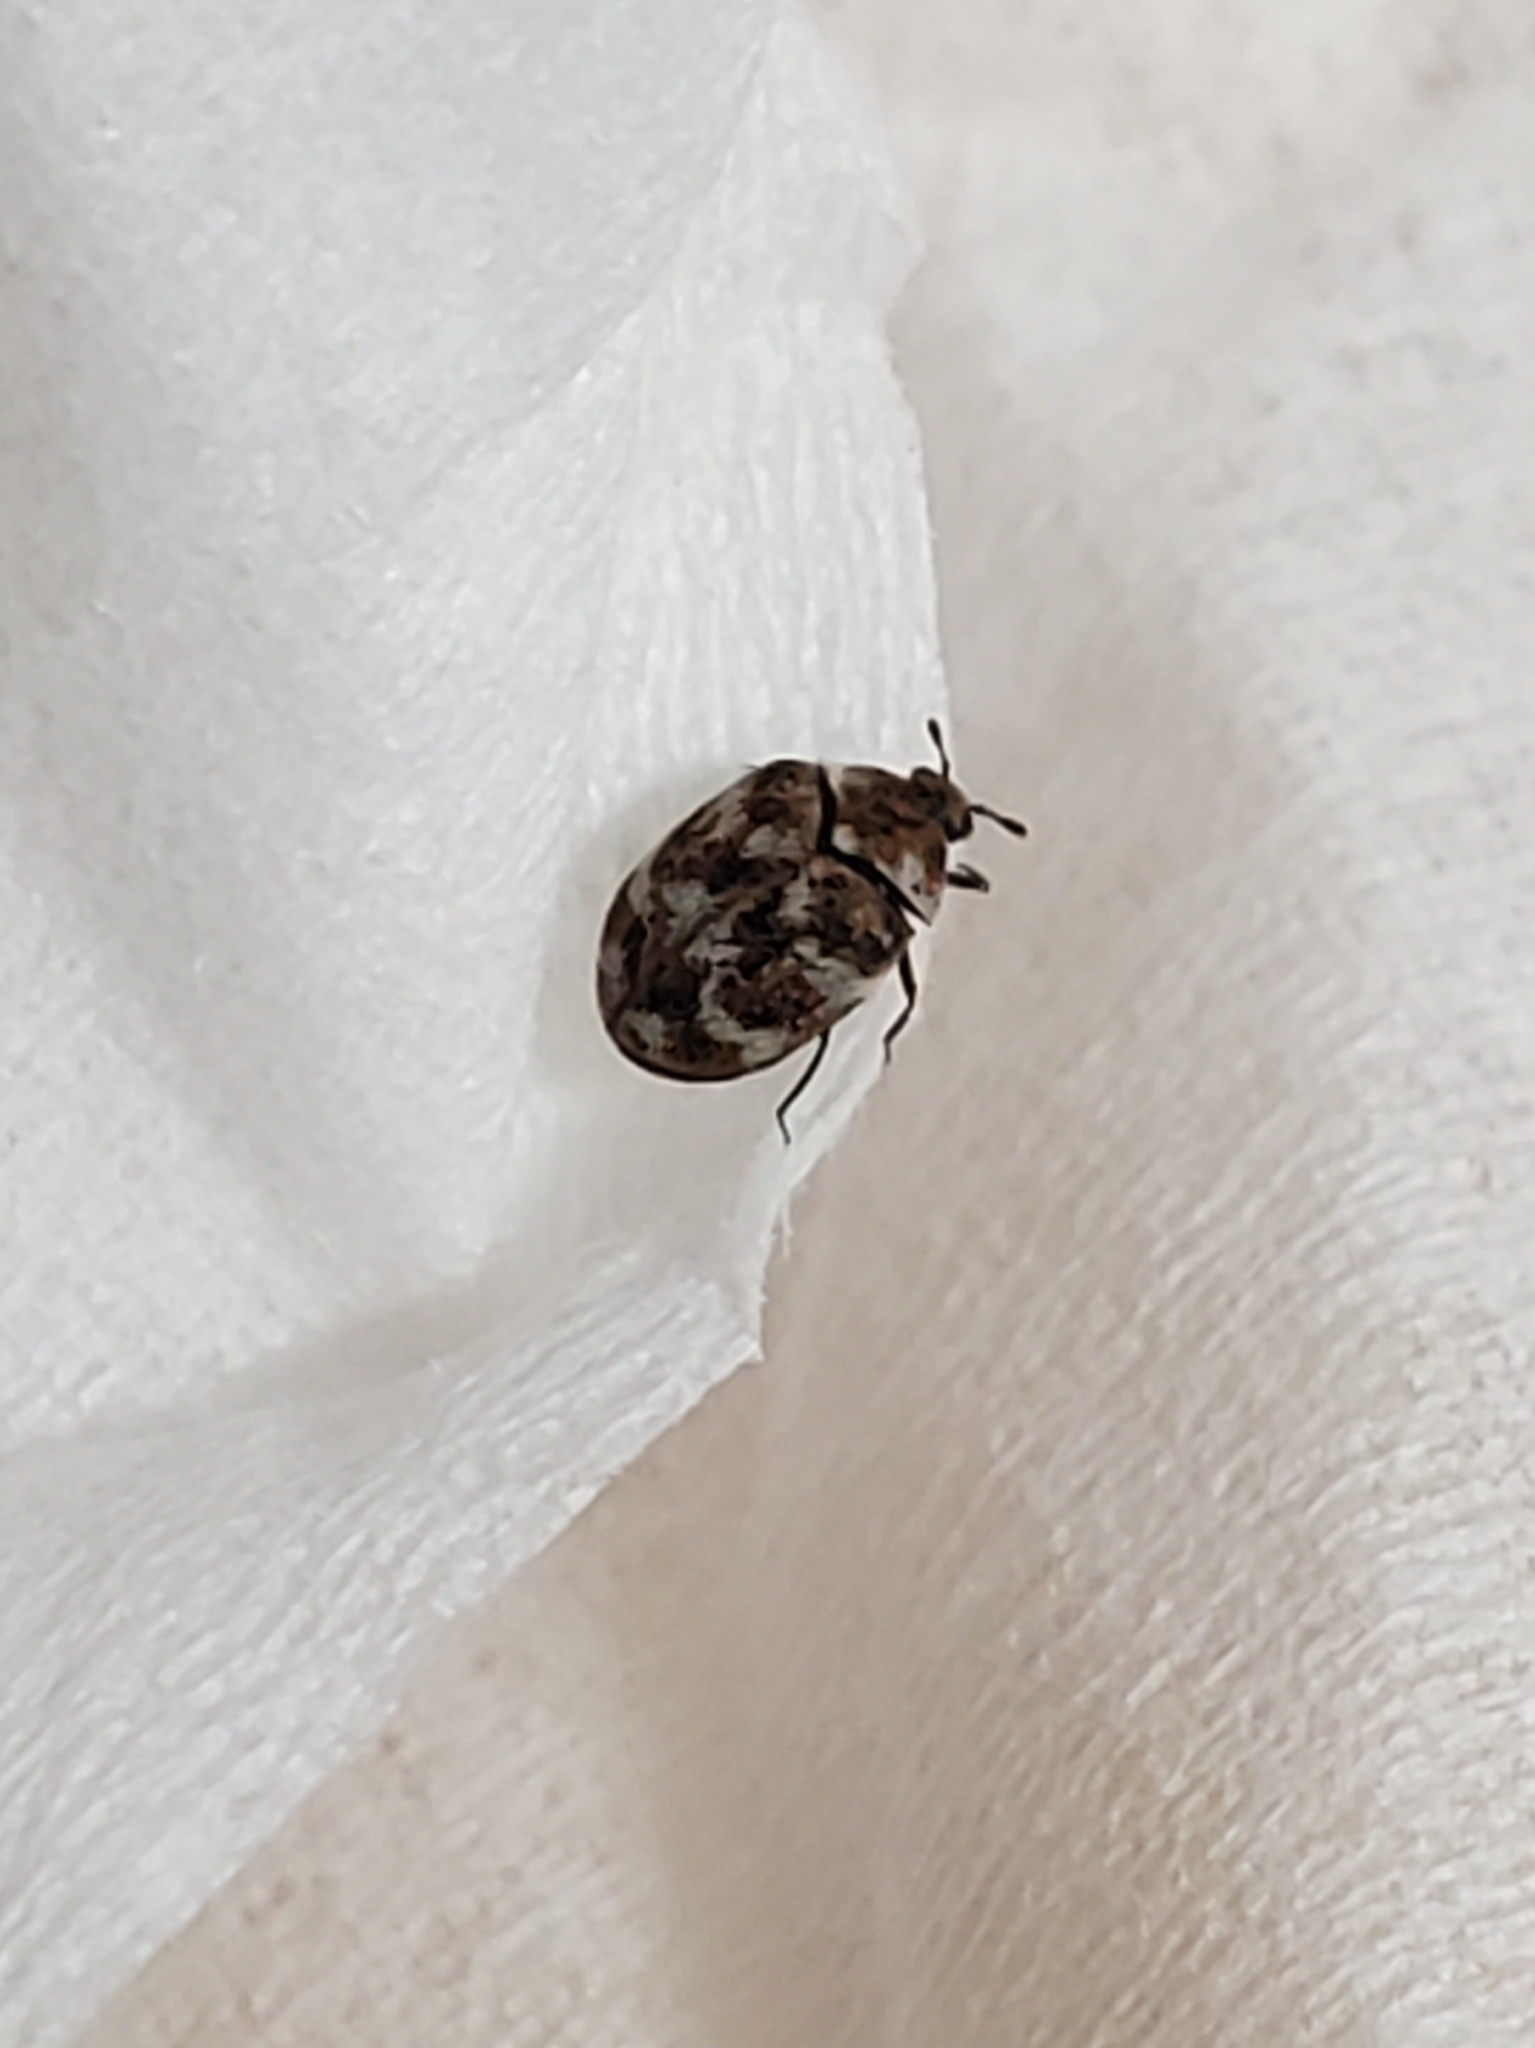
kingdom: Animalia
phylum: Arthropoda
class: Insecta
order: Coleoptera
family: Dermestidae
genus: Anthrenus
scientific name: Anthrenus verbasci
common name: Varied carpet beetle
